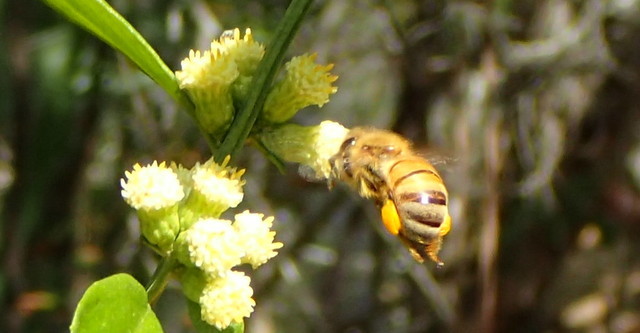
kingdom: Animalia
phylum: Arthropoda
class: Insecta
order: Hymenoptera
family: Apidae
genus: Apis
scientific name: Apis mellifera
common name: Honey bee
